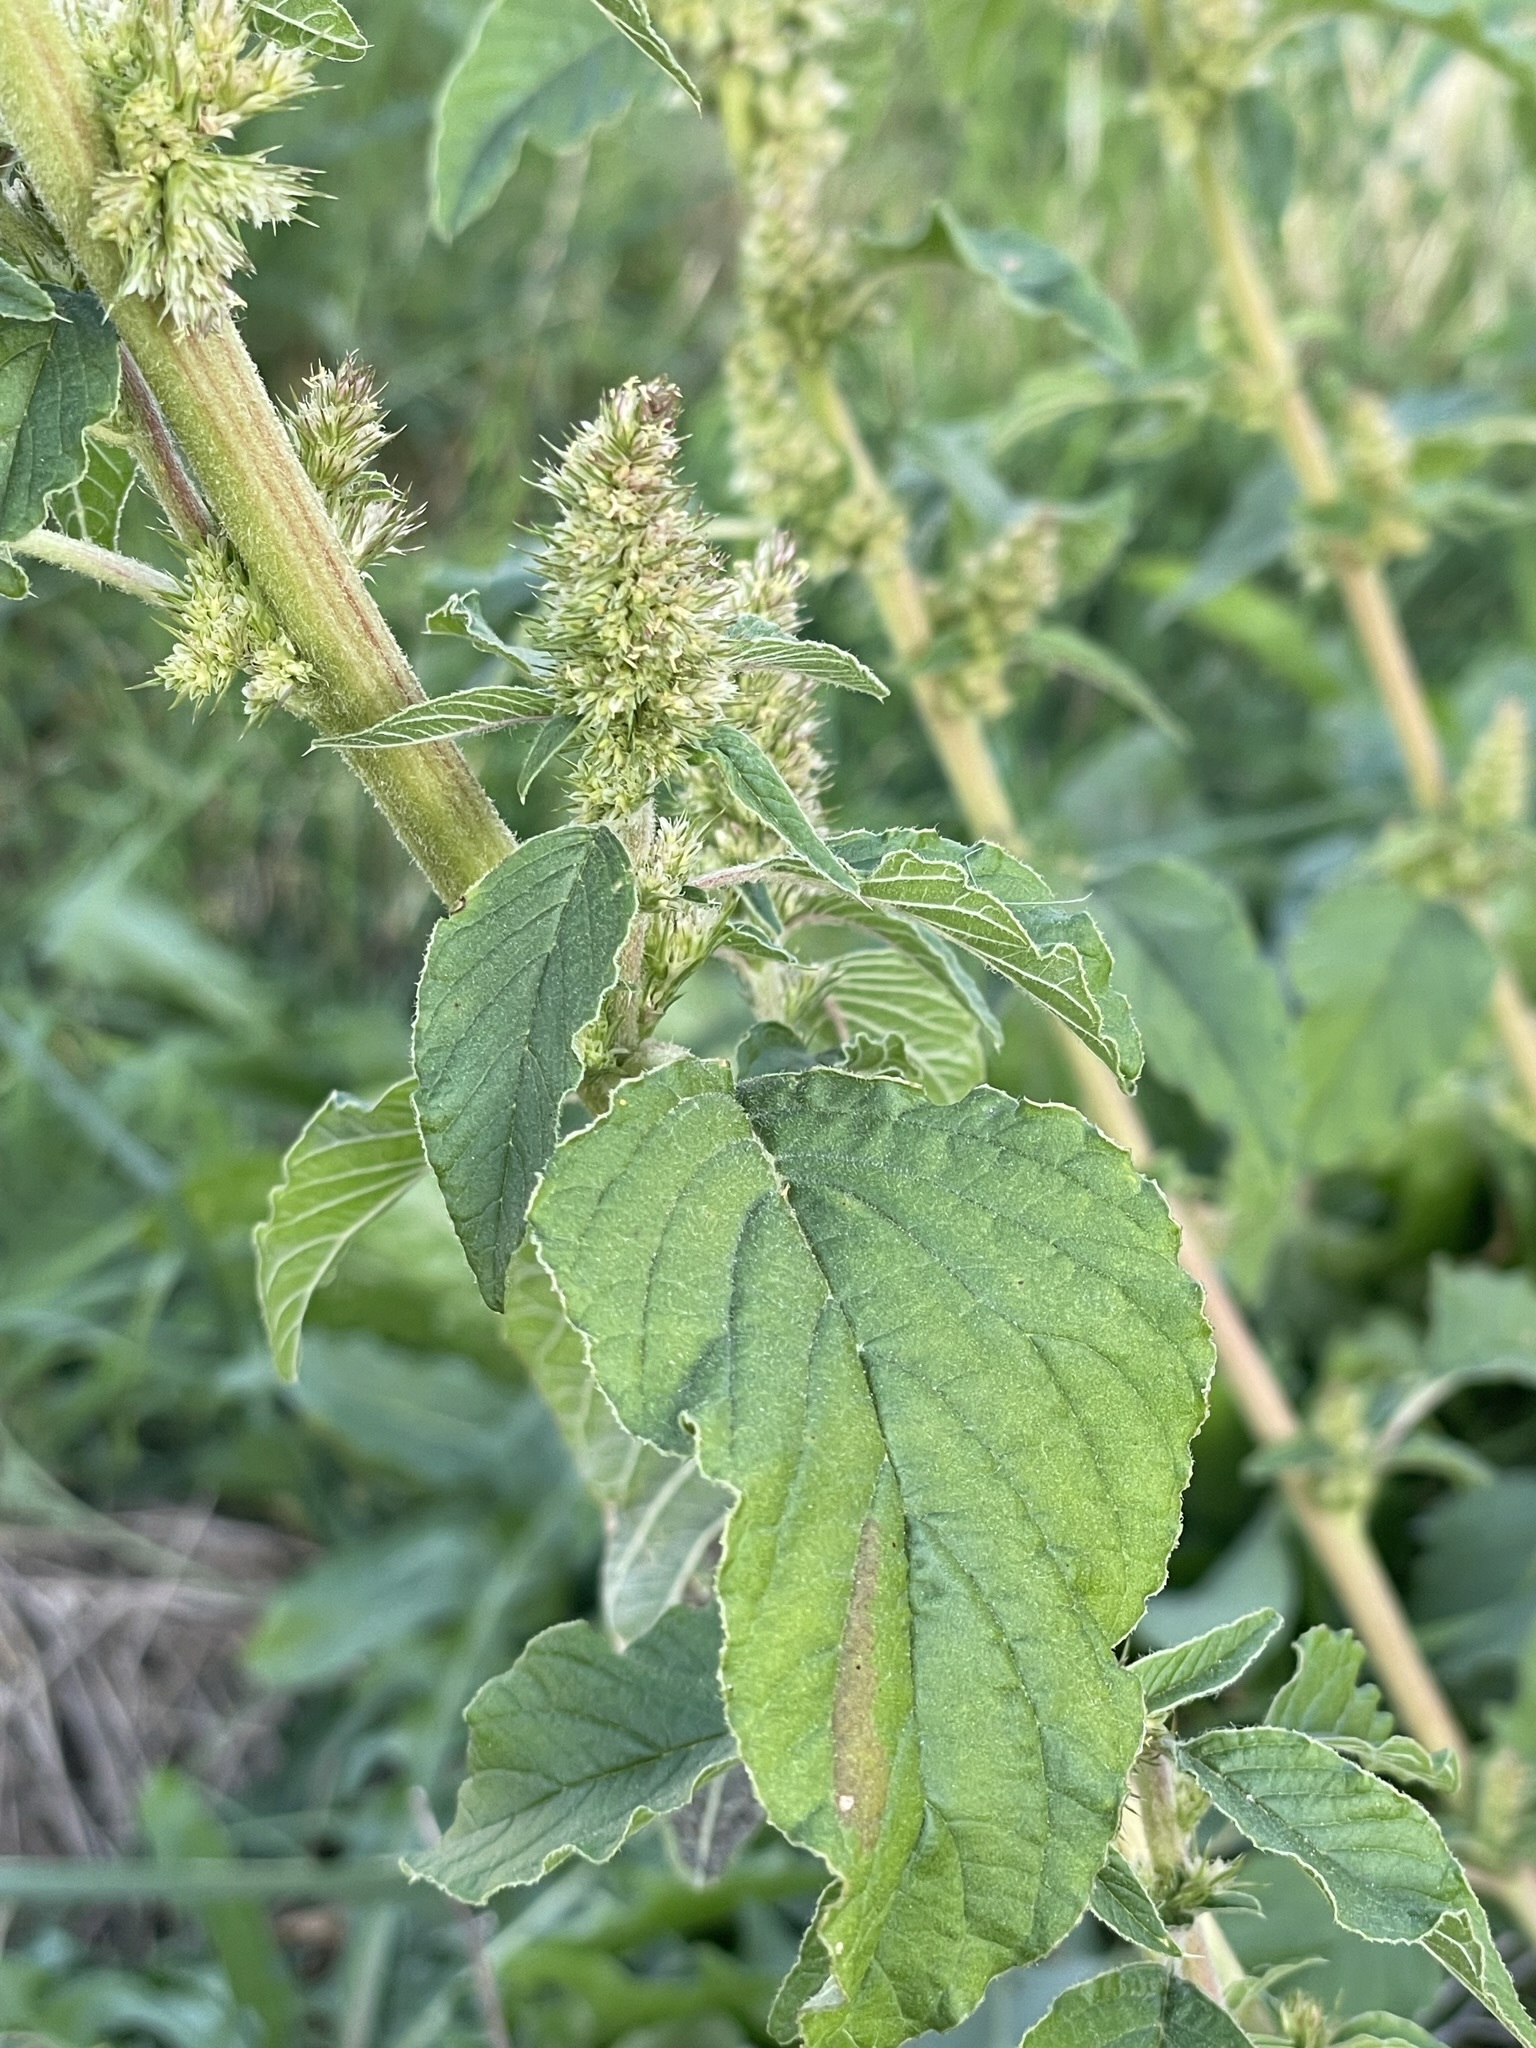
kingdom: Plantae
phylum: Tracheophyta
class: Magnoliopsida
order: Caryophyllales
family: Amaranthaceae
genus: Amaranthus
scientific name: Amaranthus retroflexus
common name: Redroot amaranth
